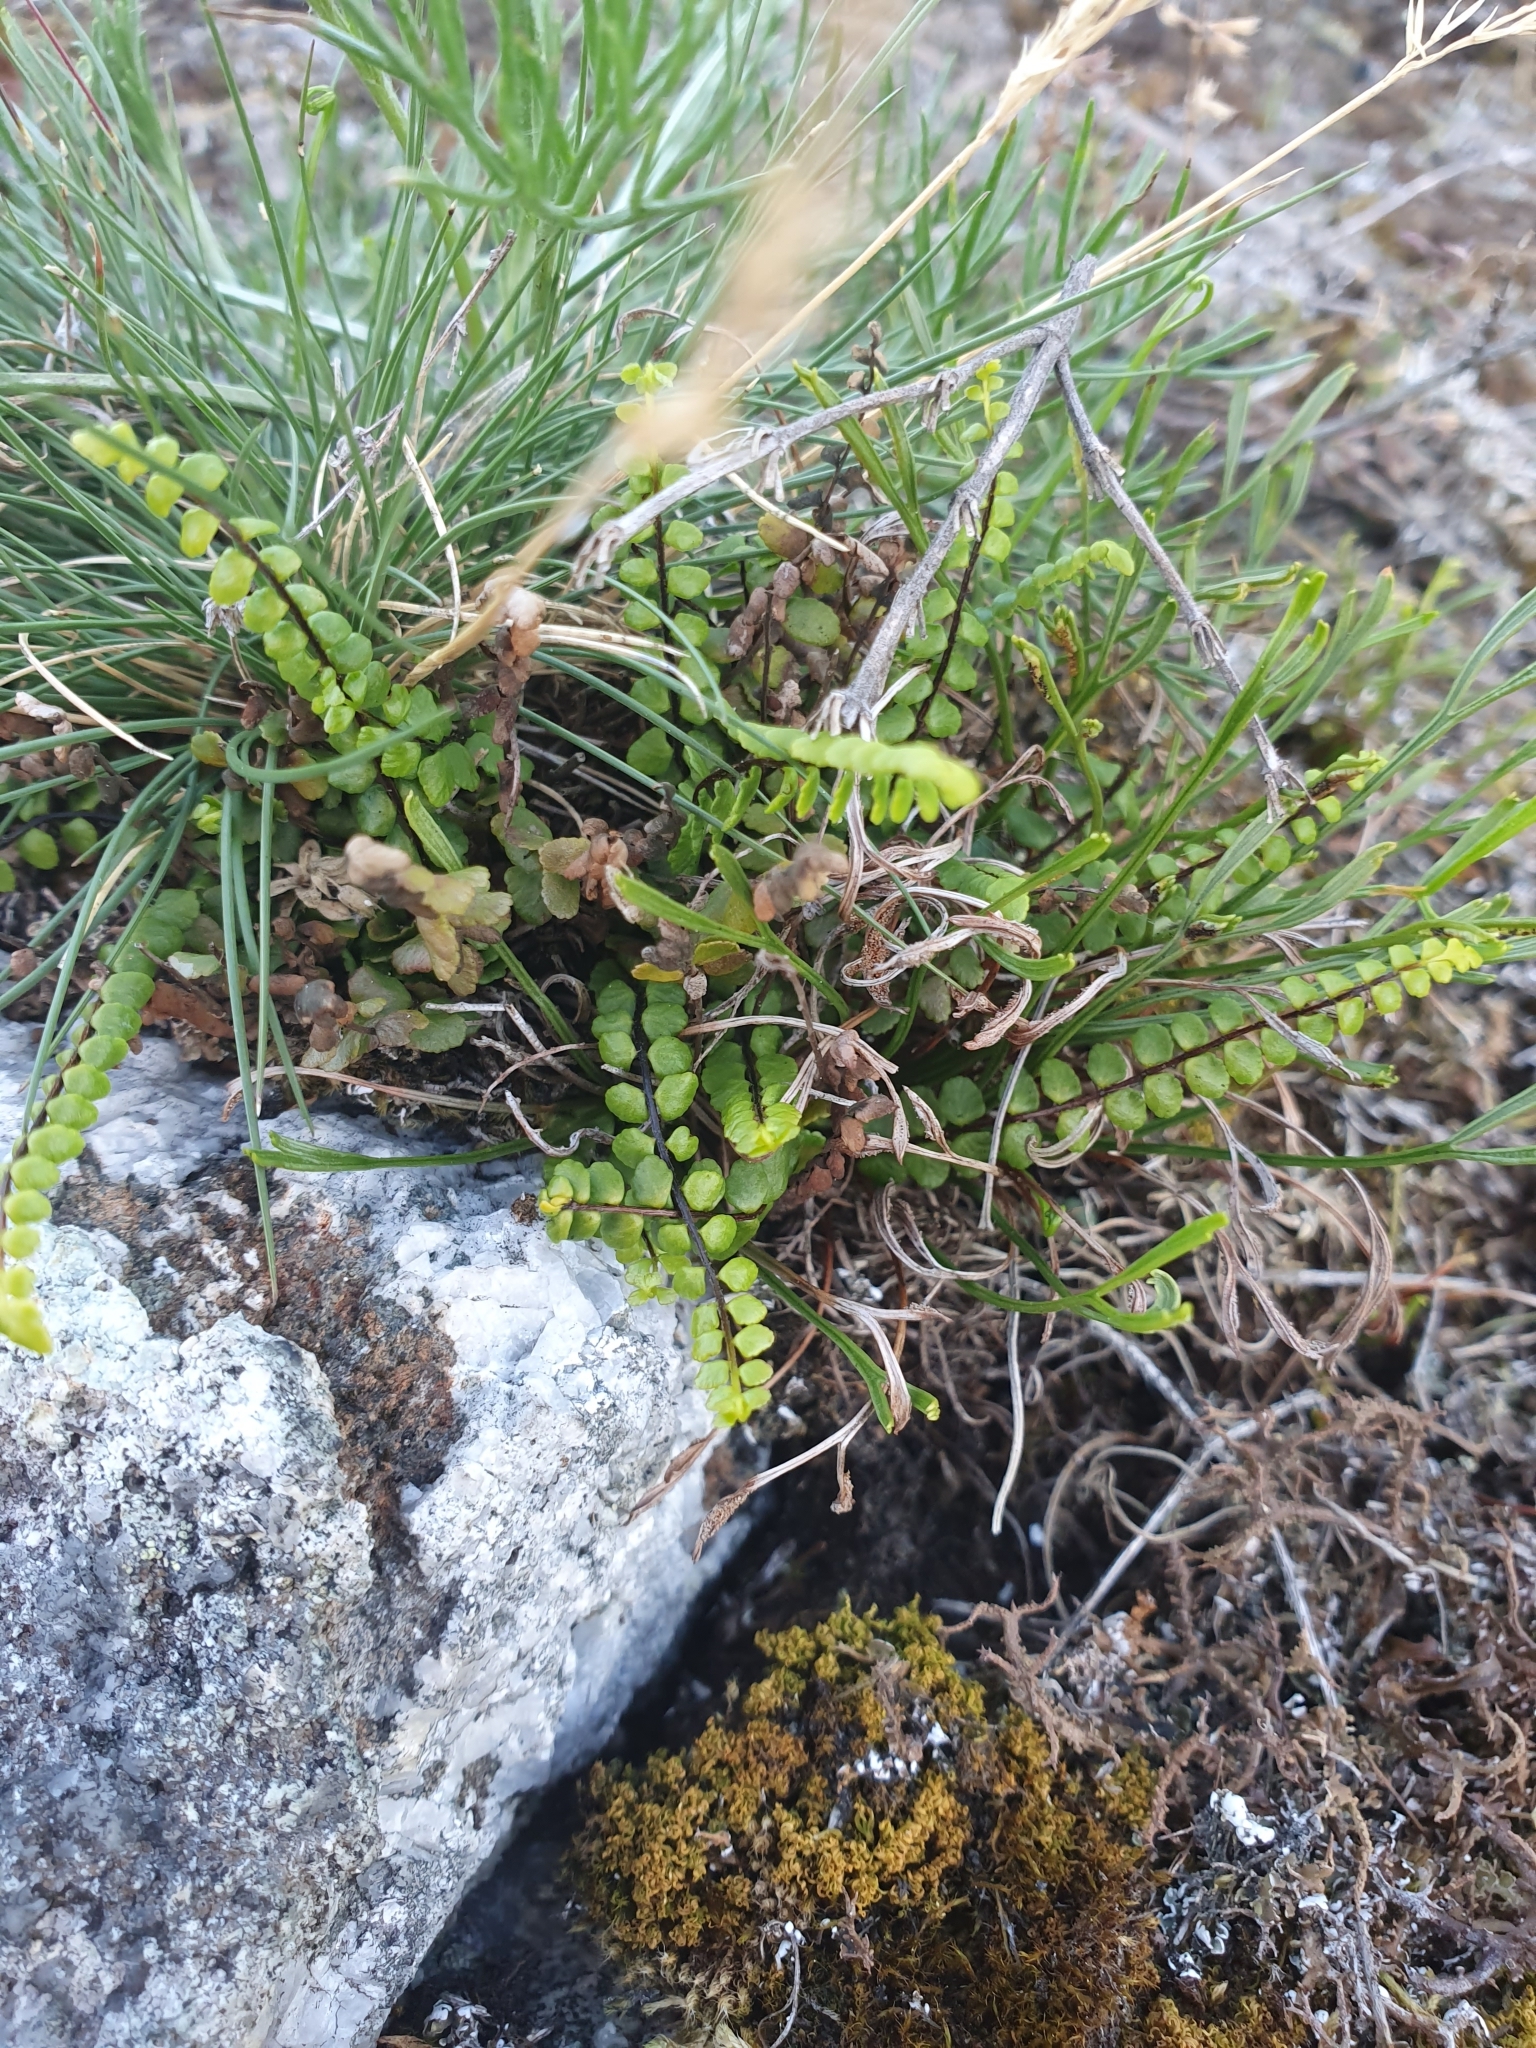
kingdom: Plantae
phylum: Tracheophyta
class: Polypodiopsida
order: Polypodiales
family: Aspleniaceae
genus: Asplenium
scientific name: Asplenium trichomanes
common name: Maidenhair spleenwort
